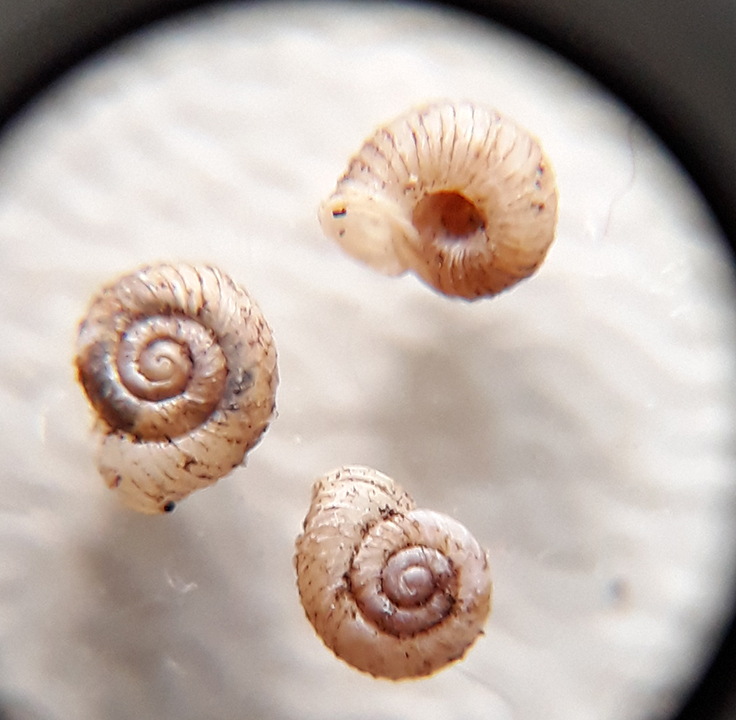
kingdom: Animalia
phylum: Mollusca
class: Gastropoda
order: Stylommatophora
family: Valloniidae
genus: Vallonia
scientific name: Vallonia costata
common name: Ribbed grass snail
